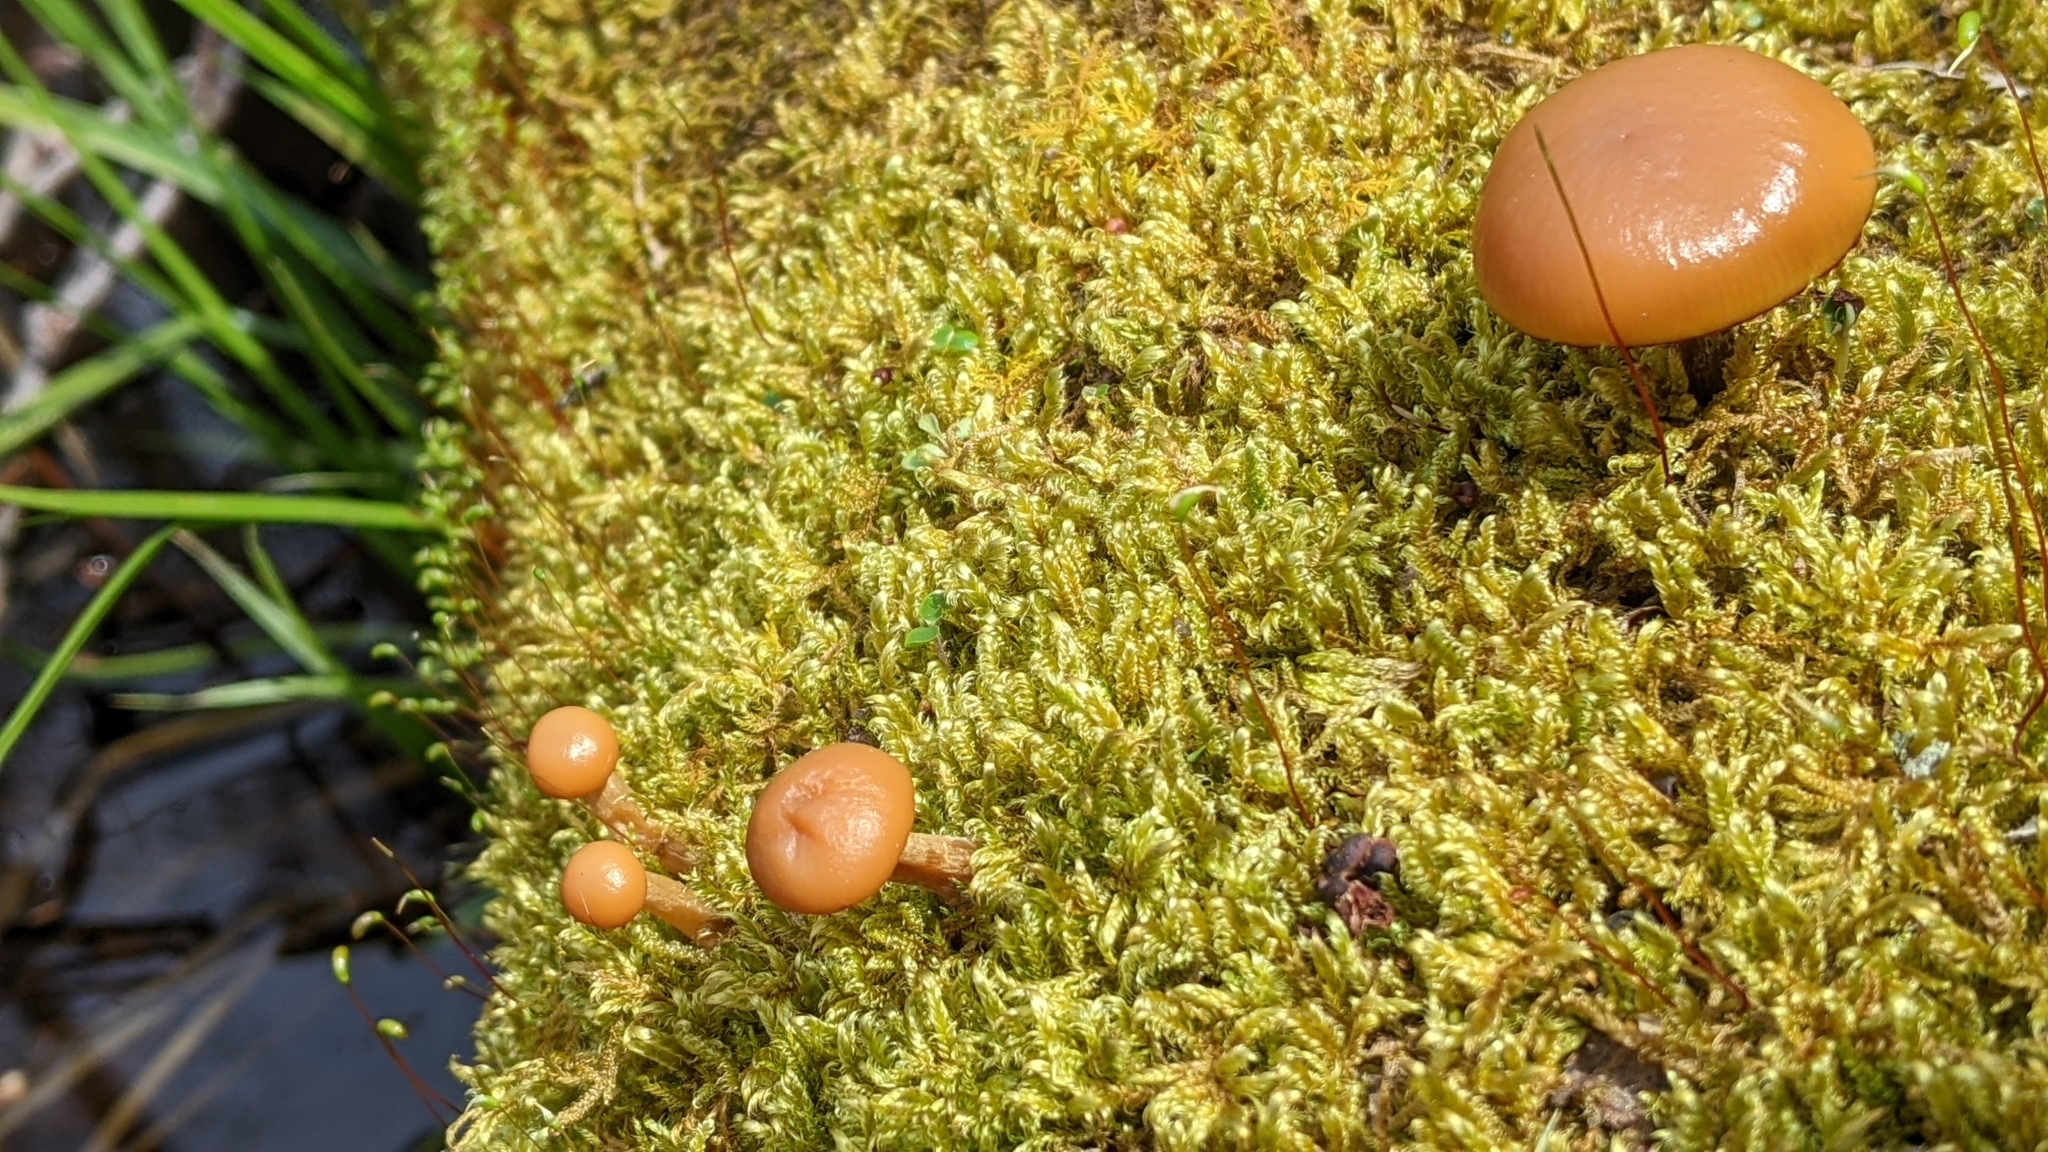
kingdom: Fungi
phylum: Basidiomycota
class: Agaricomycetes
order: Agaricales
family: Hymenogastraceae
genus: Galerina
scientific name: Galerina marginata
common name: Funeral bell
